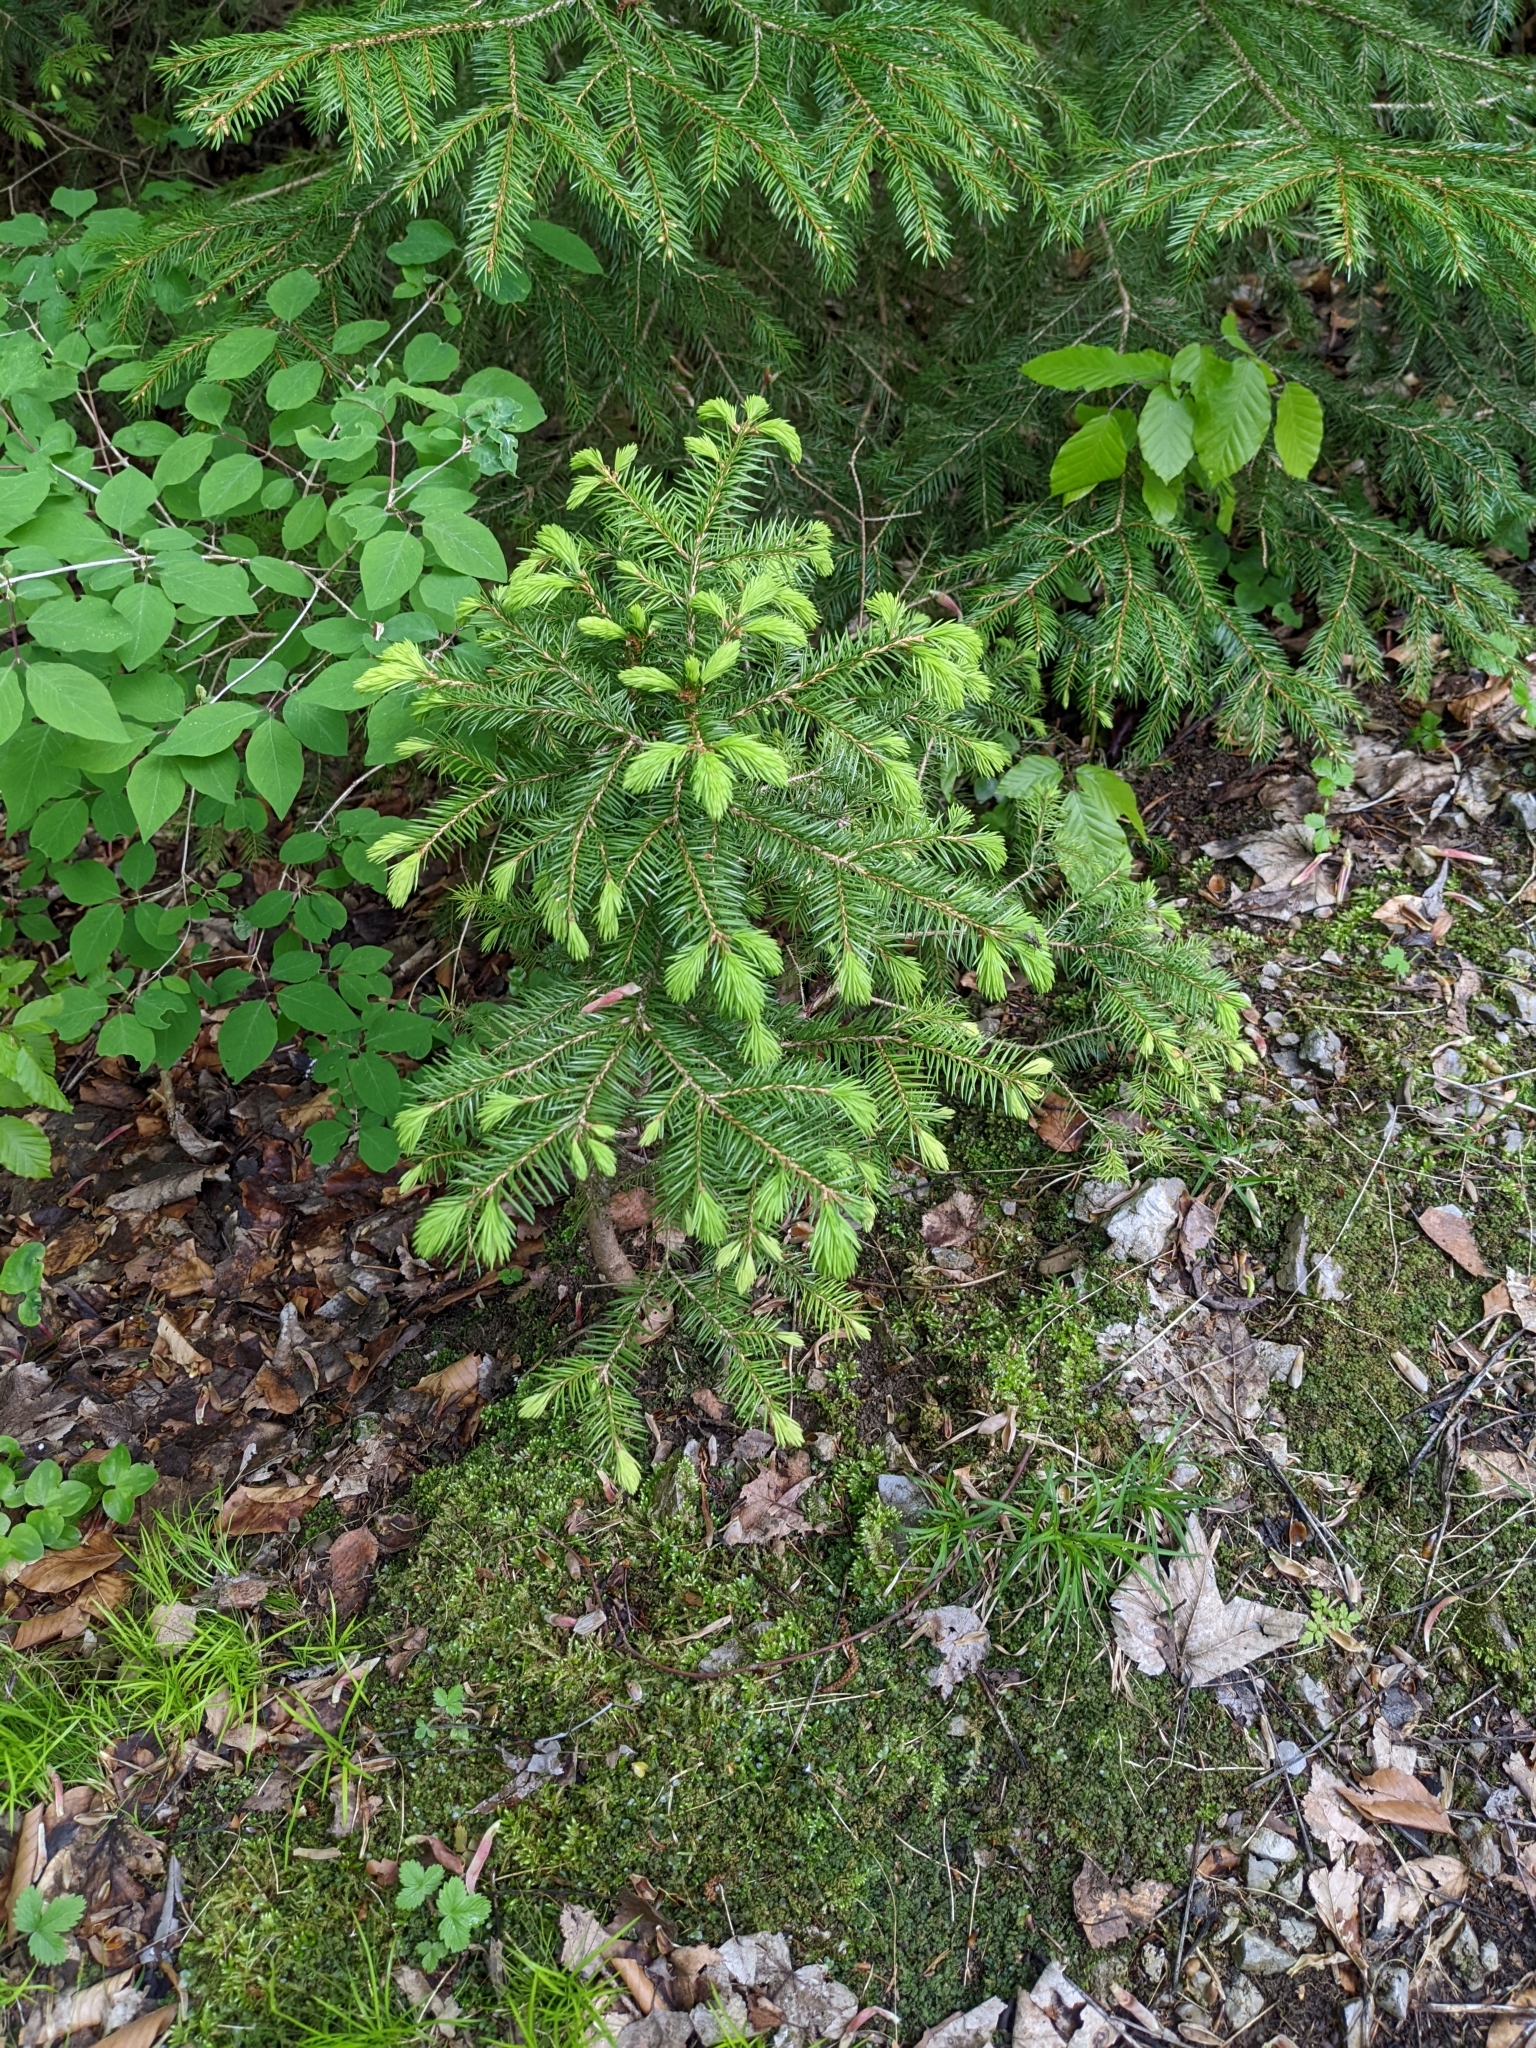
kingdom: Plantae
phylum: Tracheophyta
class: Pinopsida
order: Pinales
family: Pinaceae
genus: Picea
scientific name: Picea abies
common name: Norway spruce
